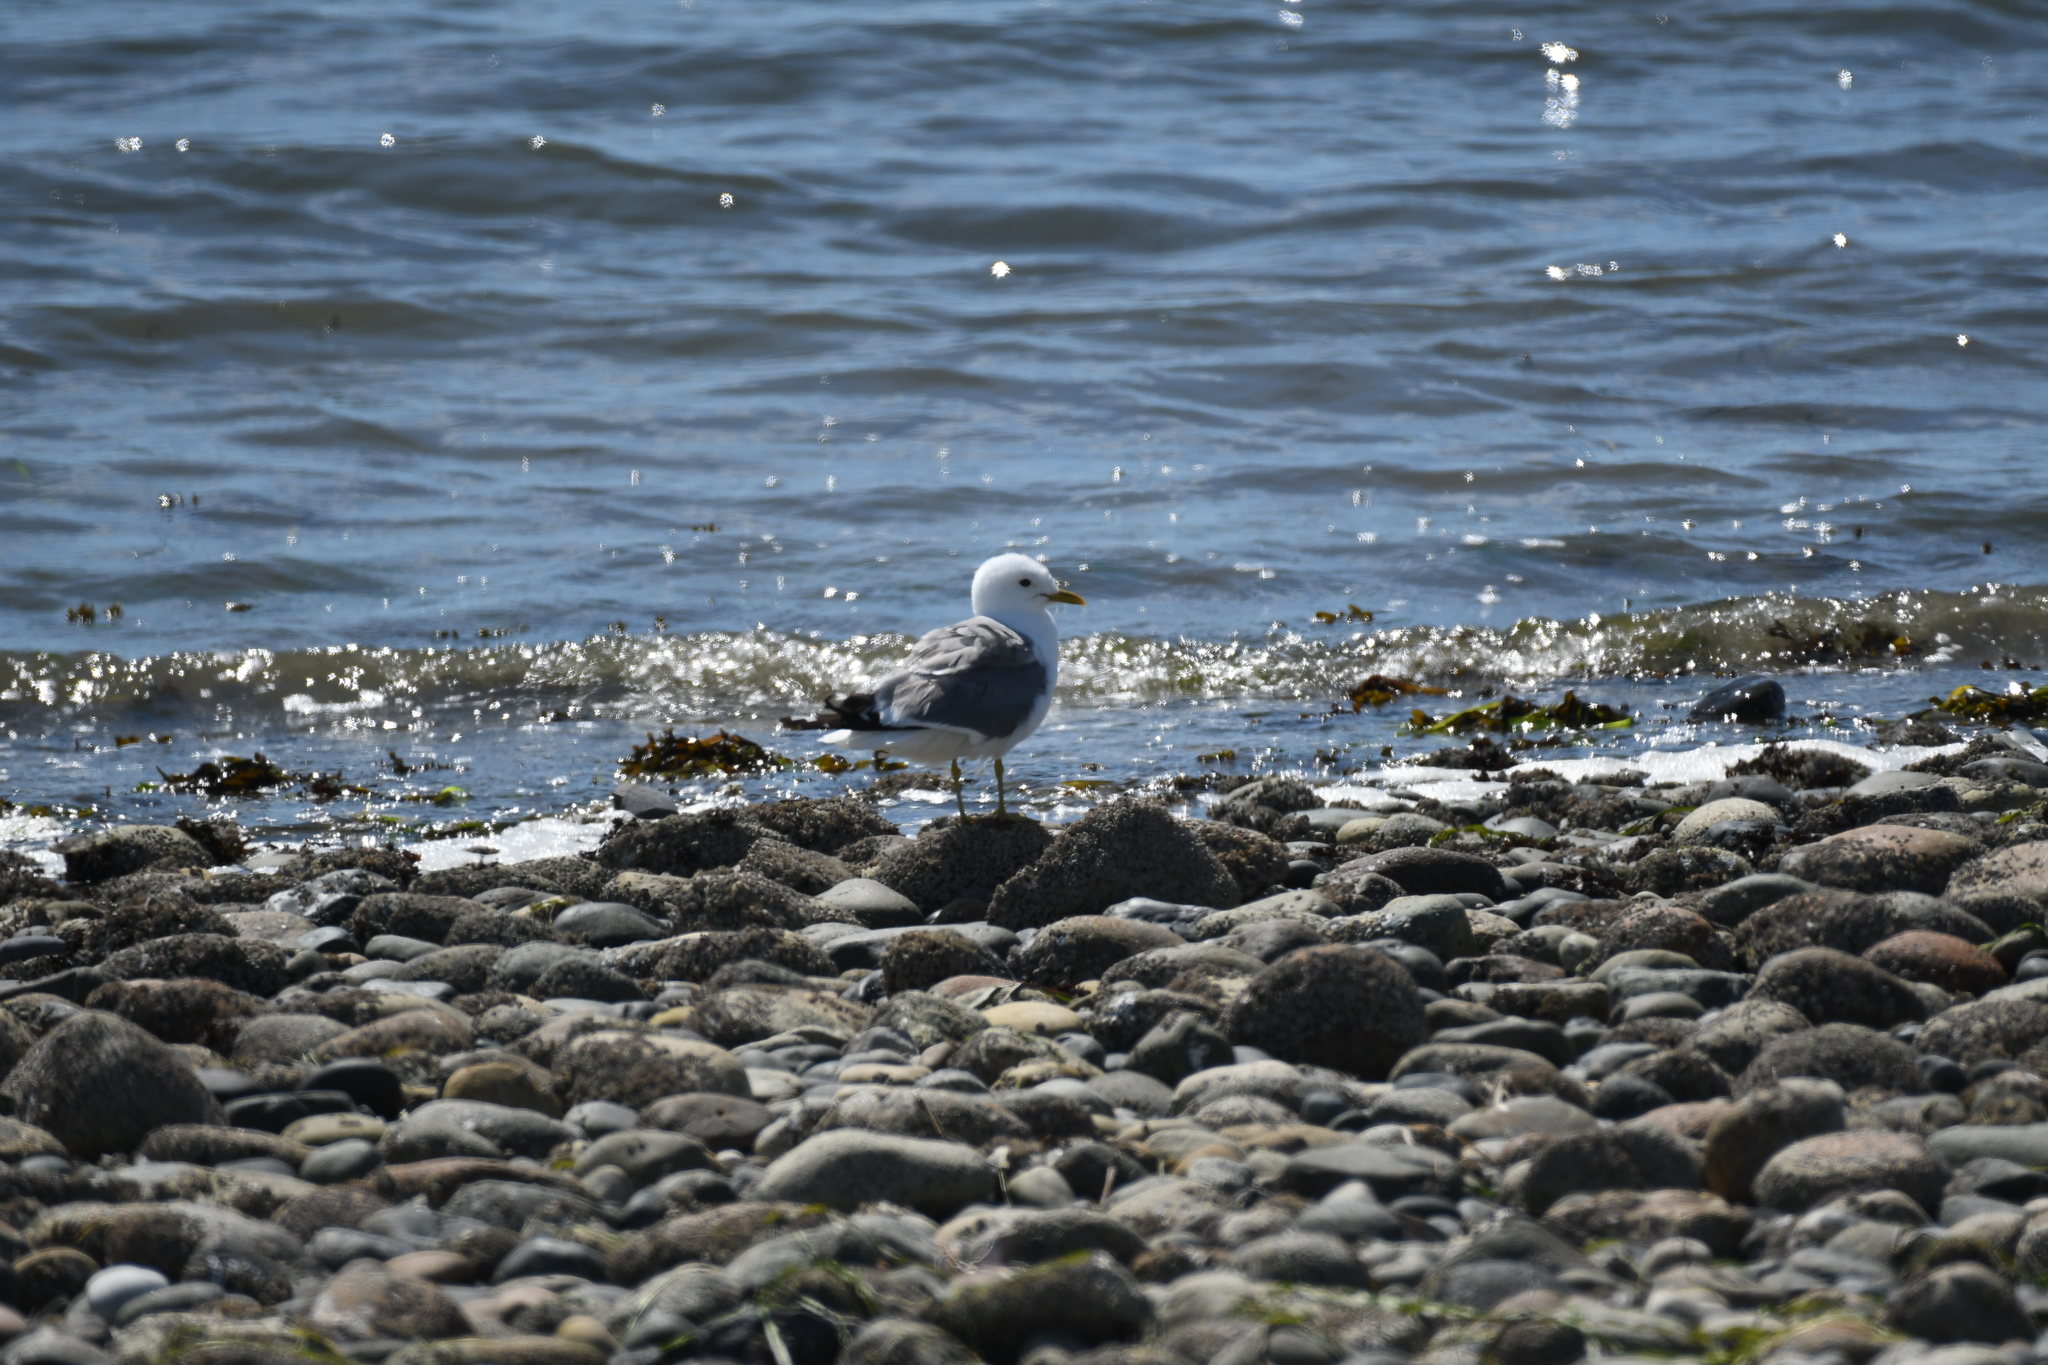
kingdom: Animalia
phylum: Chordata
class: Aves
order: Charadriiformes
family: Laridae
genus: Larus
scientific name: Larus brachyrhynchus
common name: Short-billed gull
